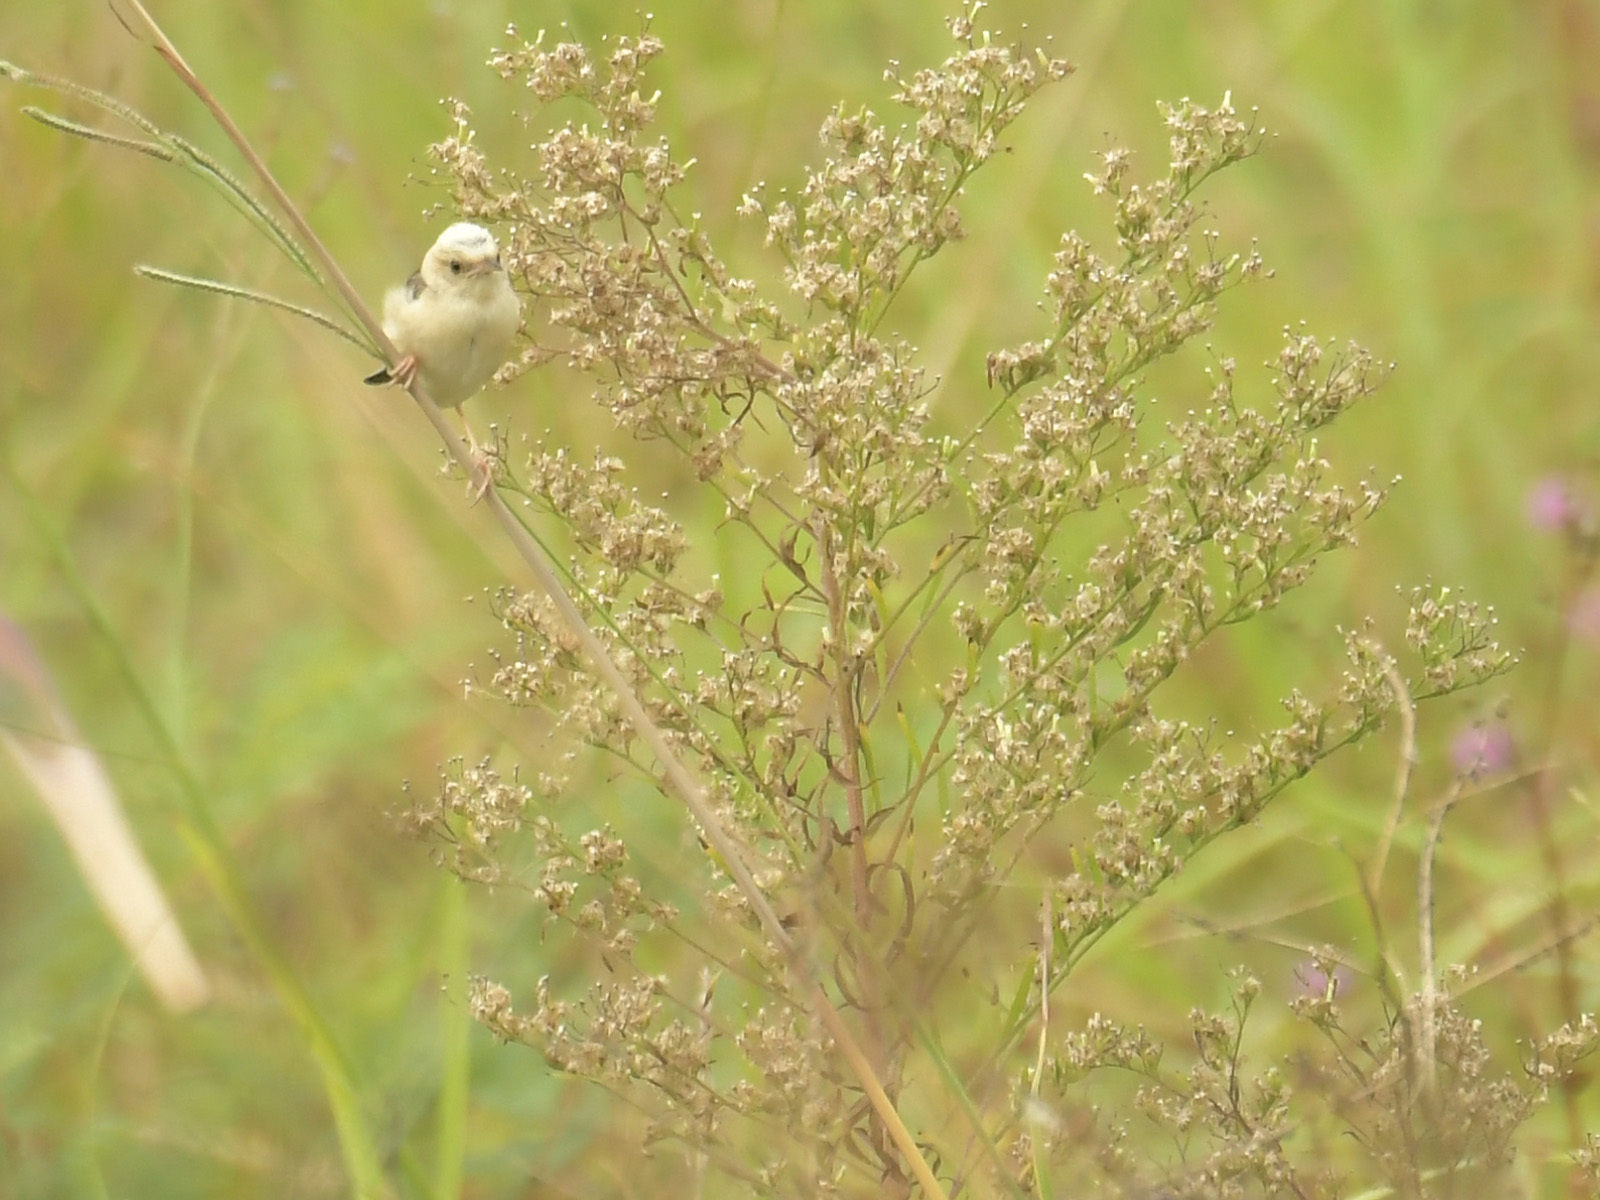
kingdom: Animalia
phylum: Chordata
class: Aves
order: Passeriformes
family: Cisticolidae
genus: Cisticola
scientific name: Cisticola exilis
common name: Golden-headed cisticola
